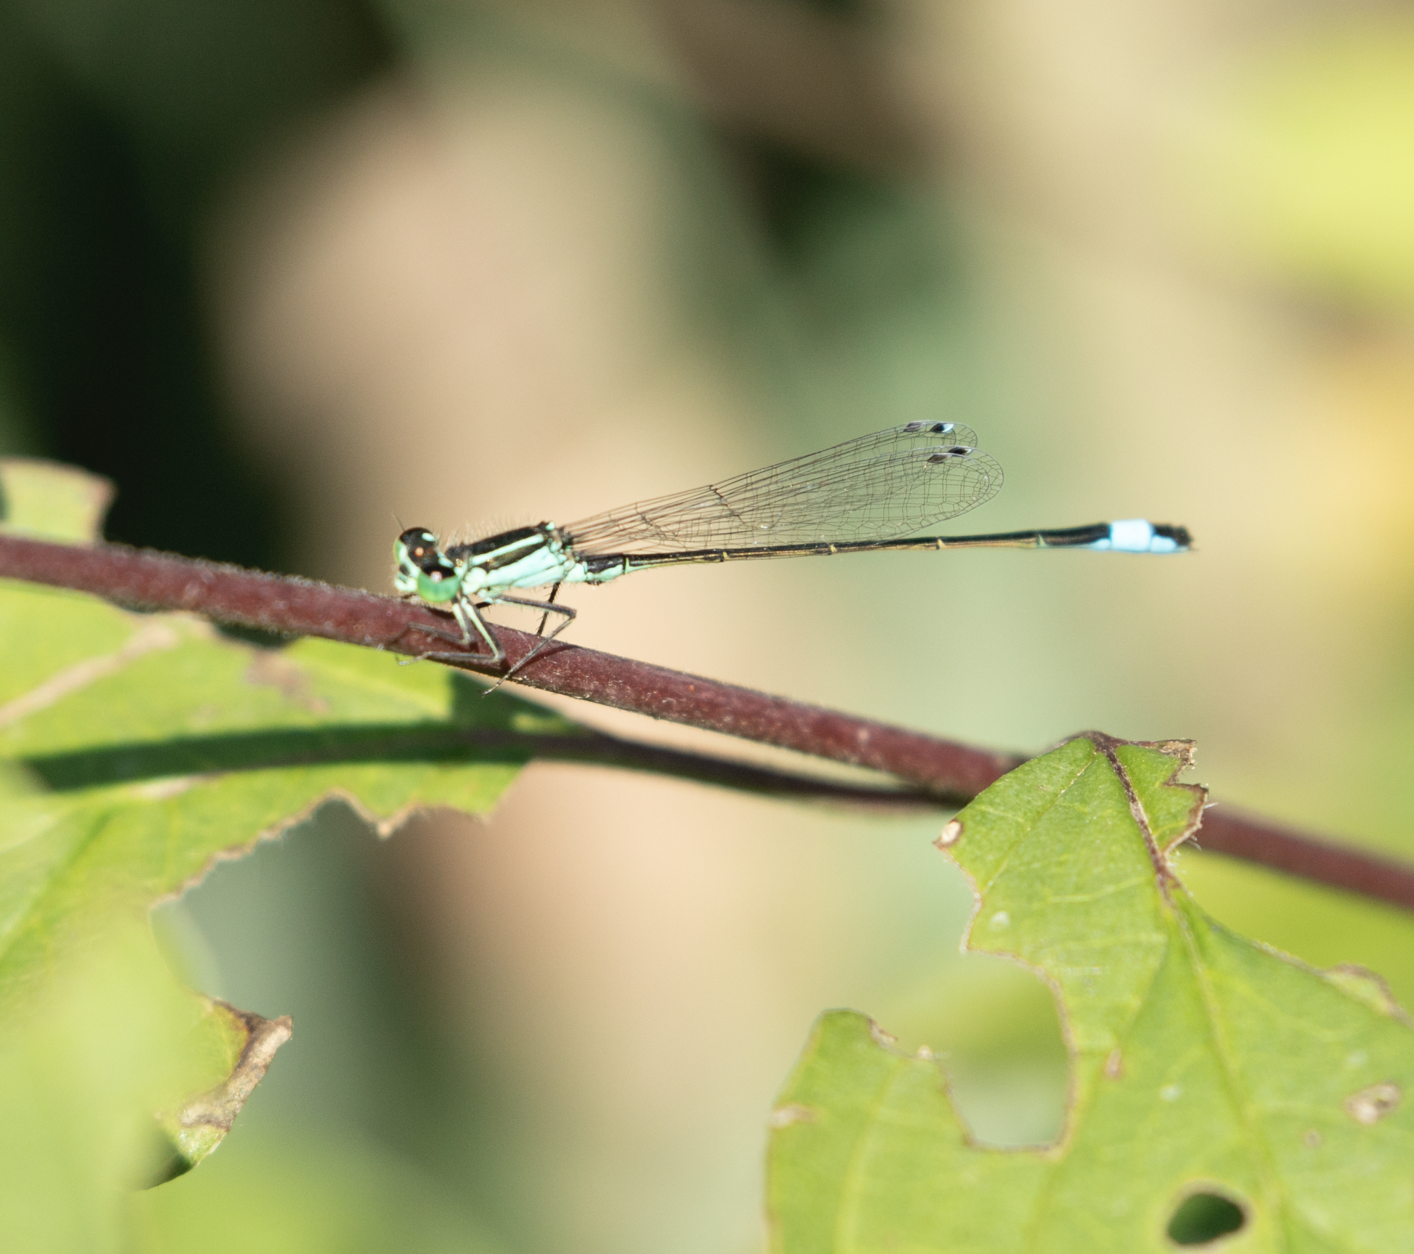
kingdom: Animalia
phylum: Arthropoda
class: Insecta
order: Odonata
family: Coenagrionidae
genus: Ischnura
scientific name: Ischnura elegans
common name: Blue-tailed damselfly
